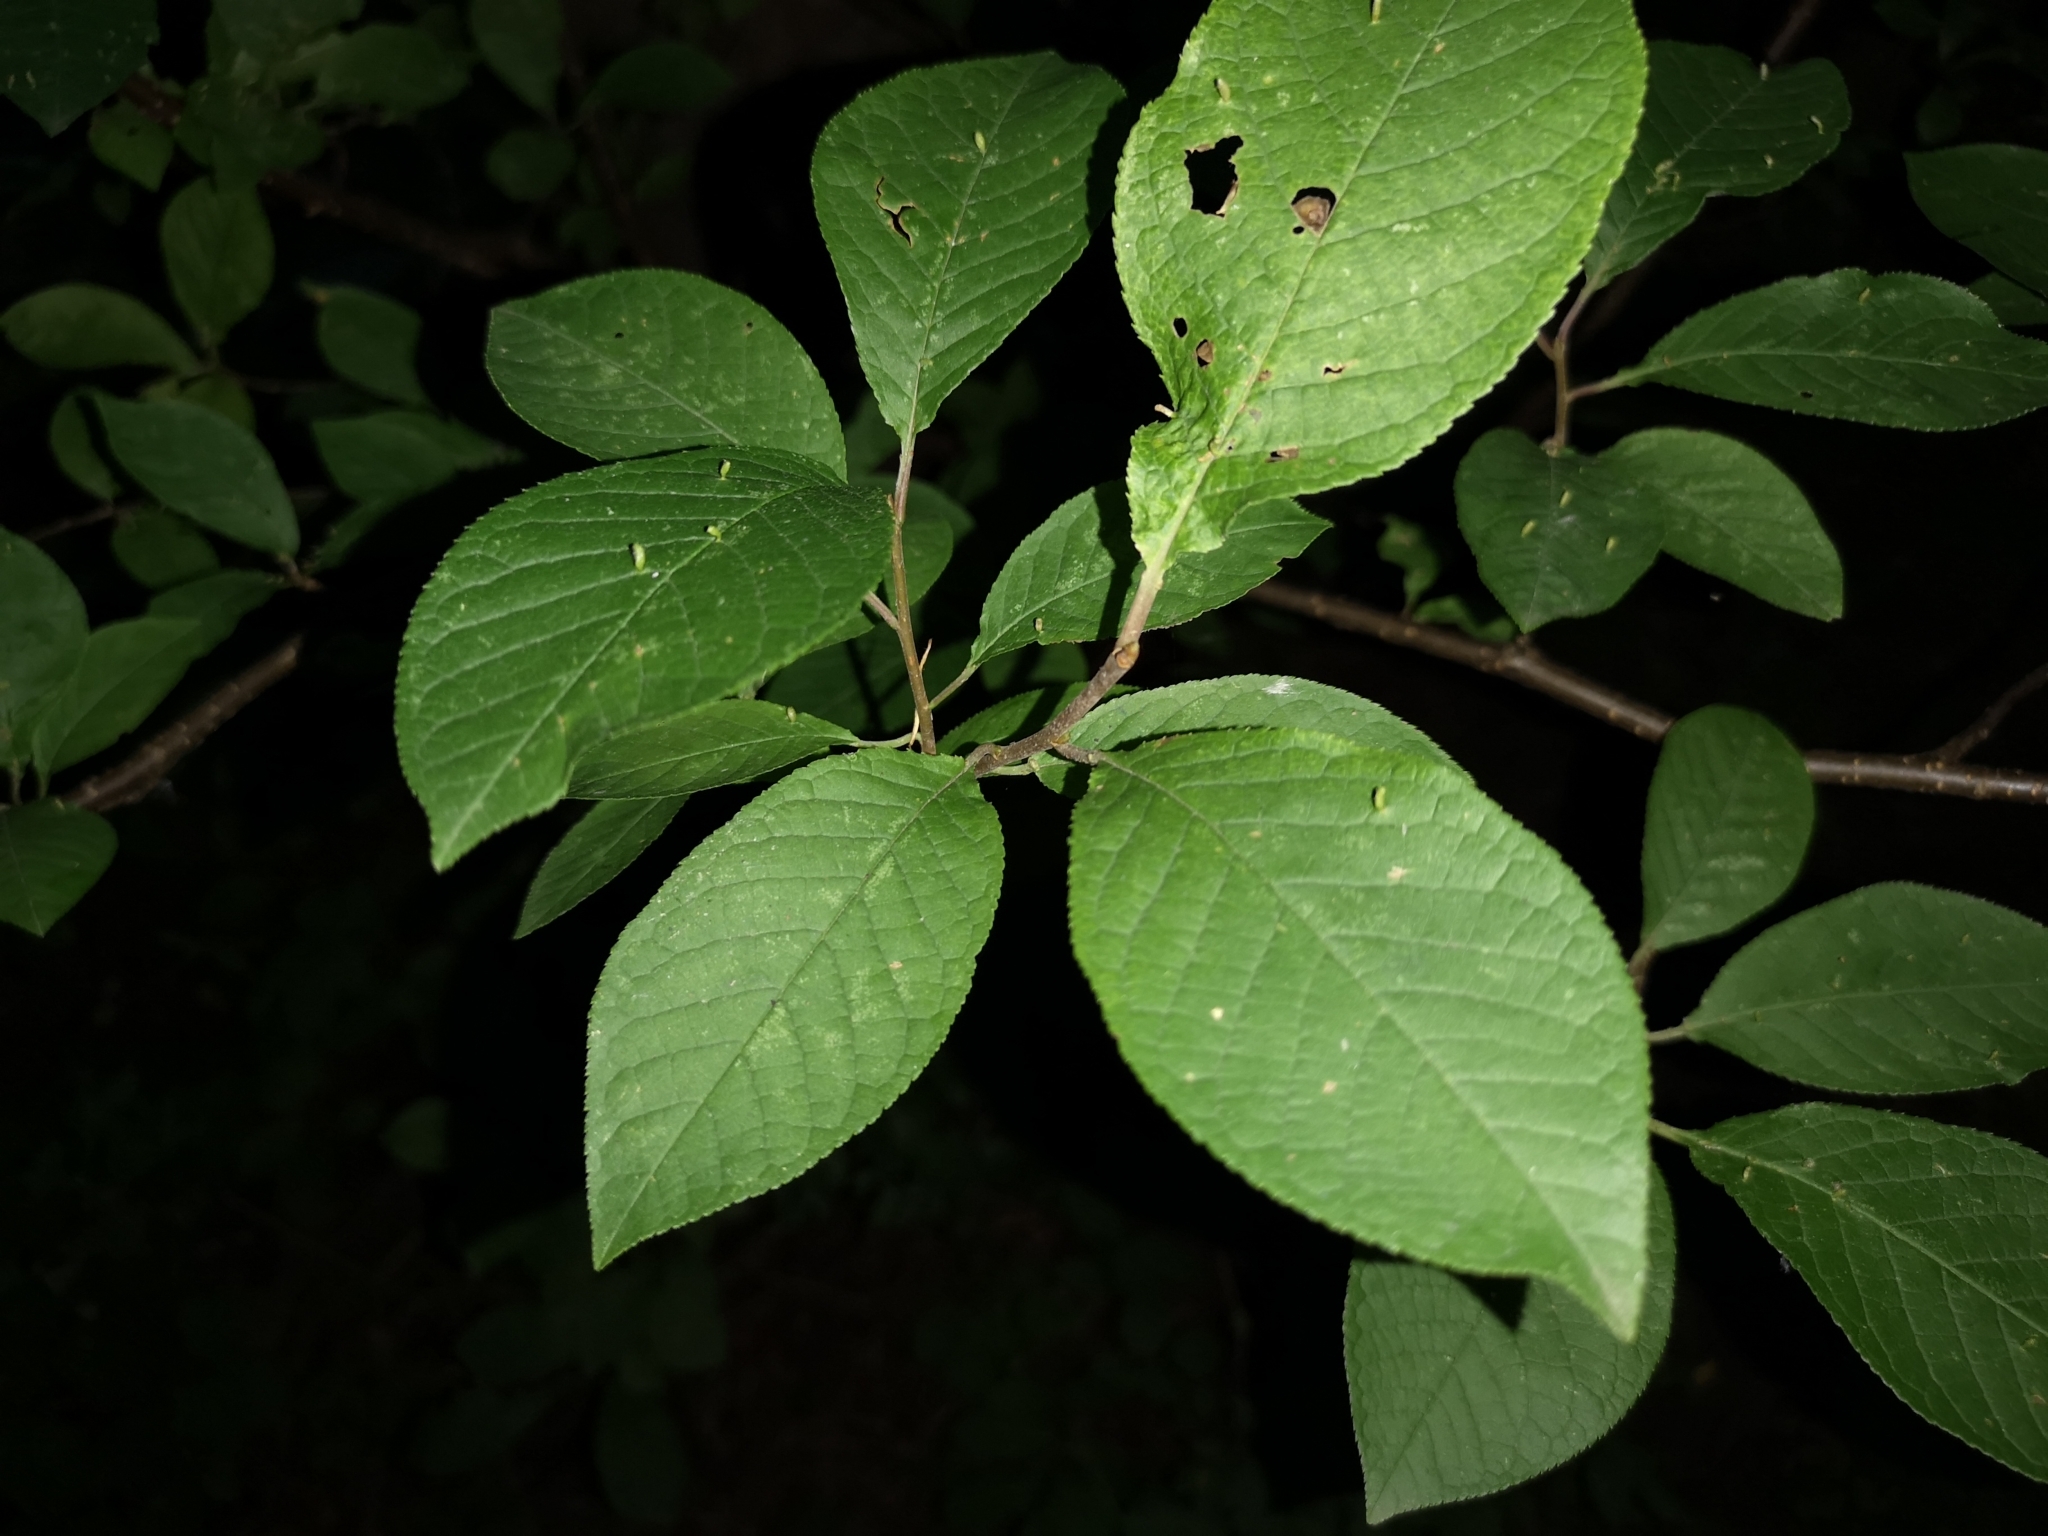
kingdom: Plantae
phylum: Tracheophyta
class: Magnoliopsida
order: Rosales
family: Rosaceae
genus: Prunus
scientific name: Prunus padus
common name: Bird cherry
